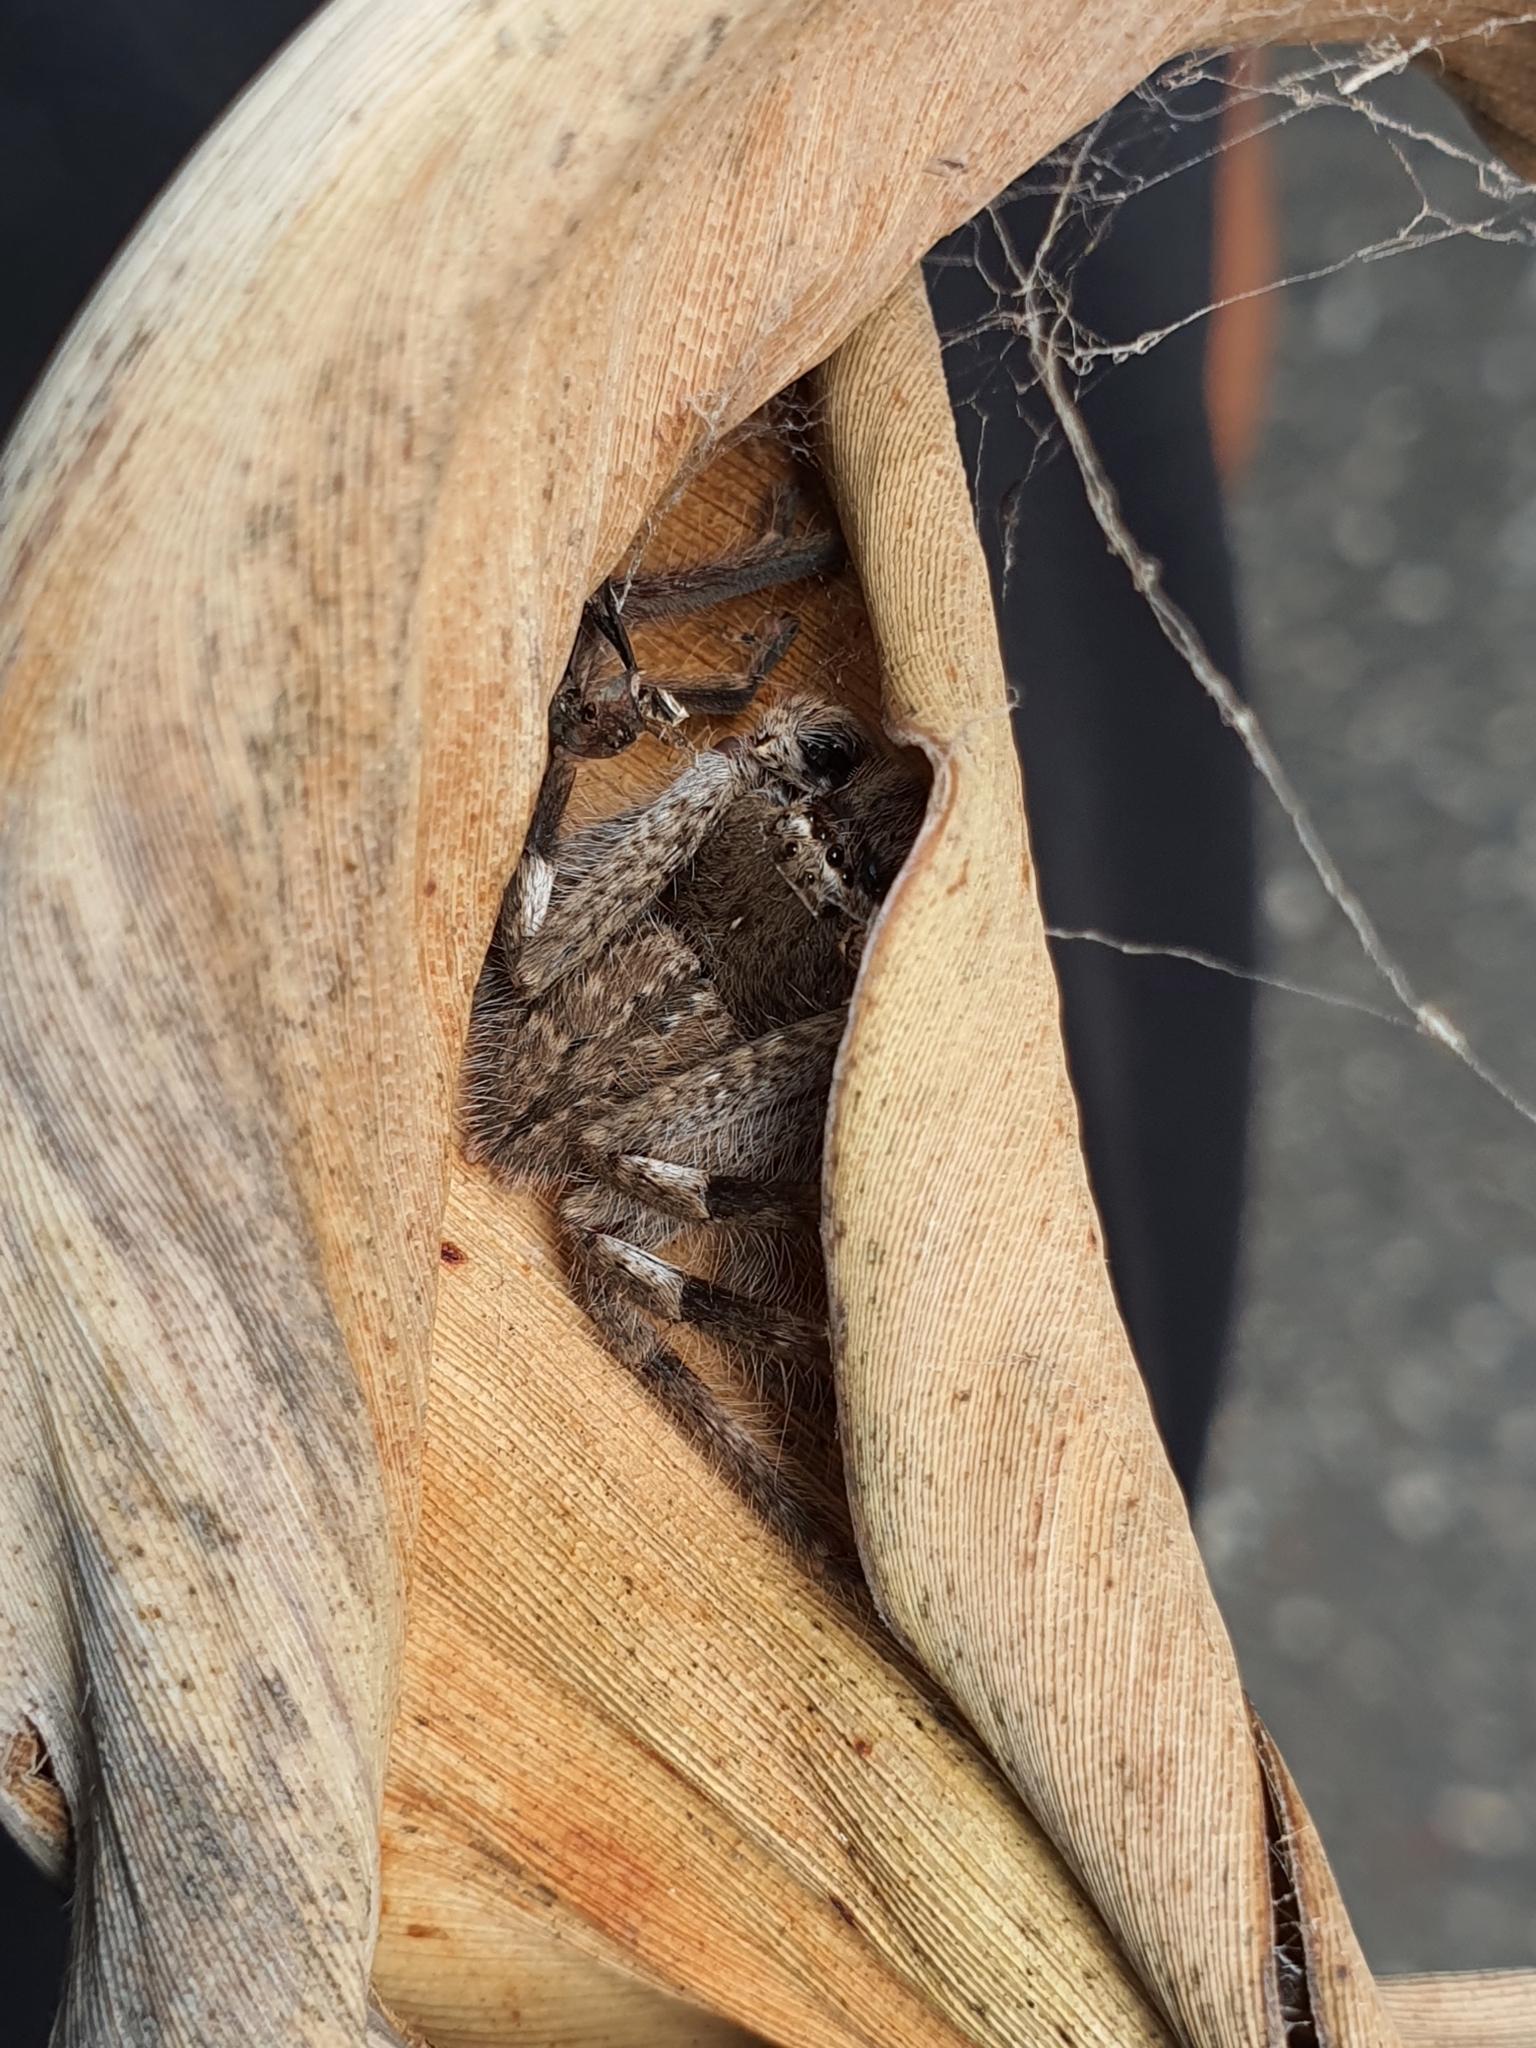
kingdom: Animalia
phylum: Arthropoda
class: Arachnida
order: Araneae
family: Sparassidae
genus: Isopedella
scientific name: Isopedella victorialis
